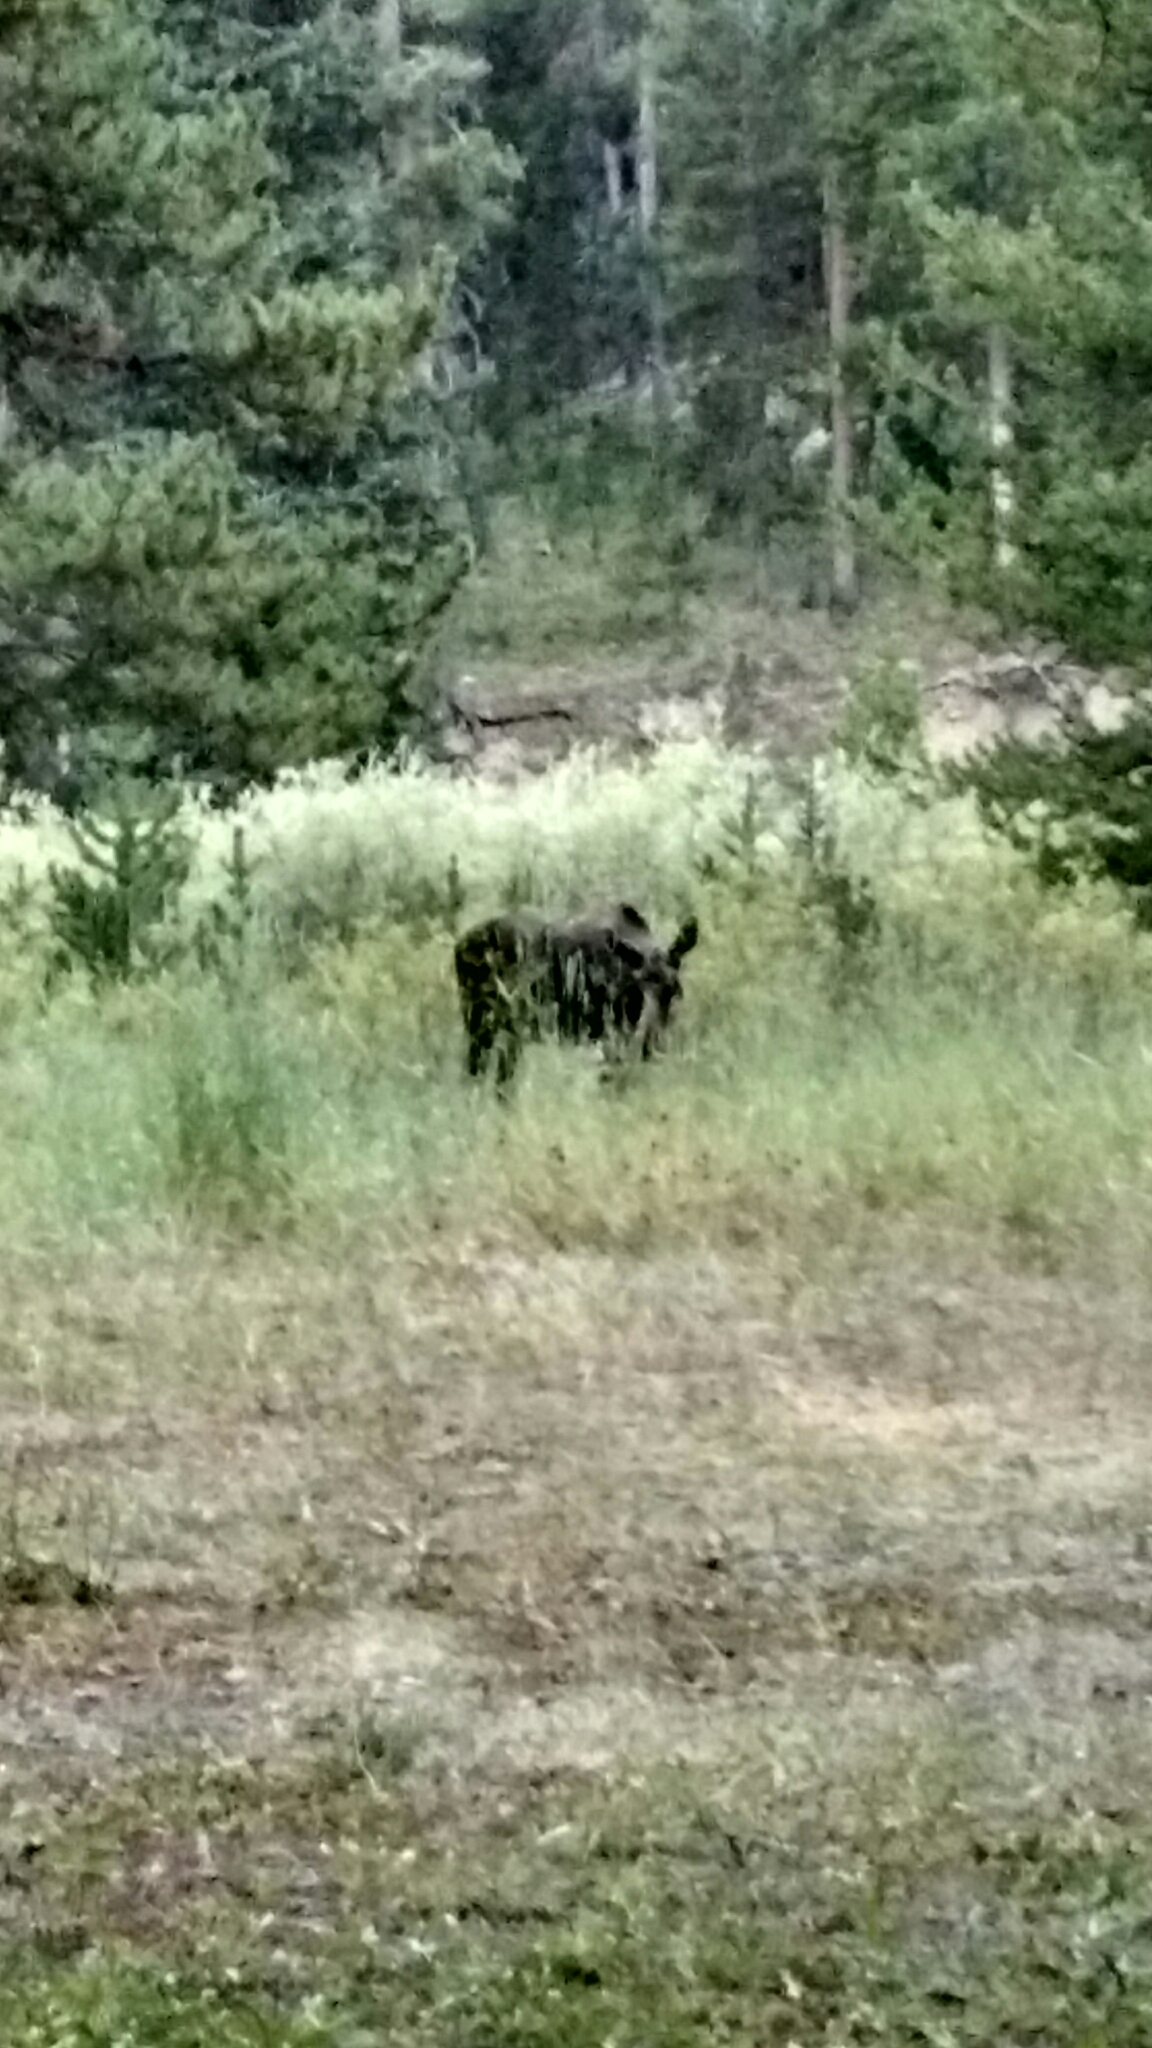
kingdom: Animalia
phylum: Chordata
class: Mammalia
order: Artiodactyla
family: Cervidae
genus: Alces
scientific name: Alces alces
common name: Moose
